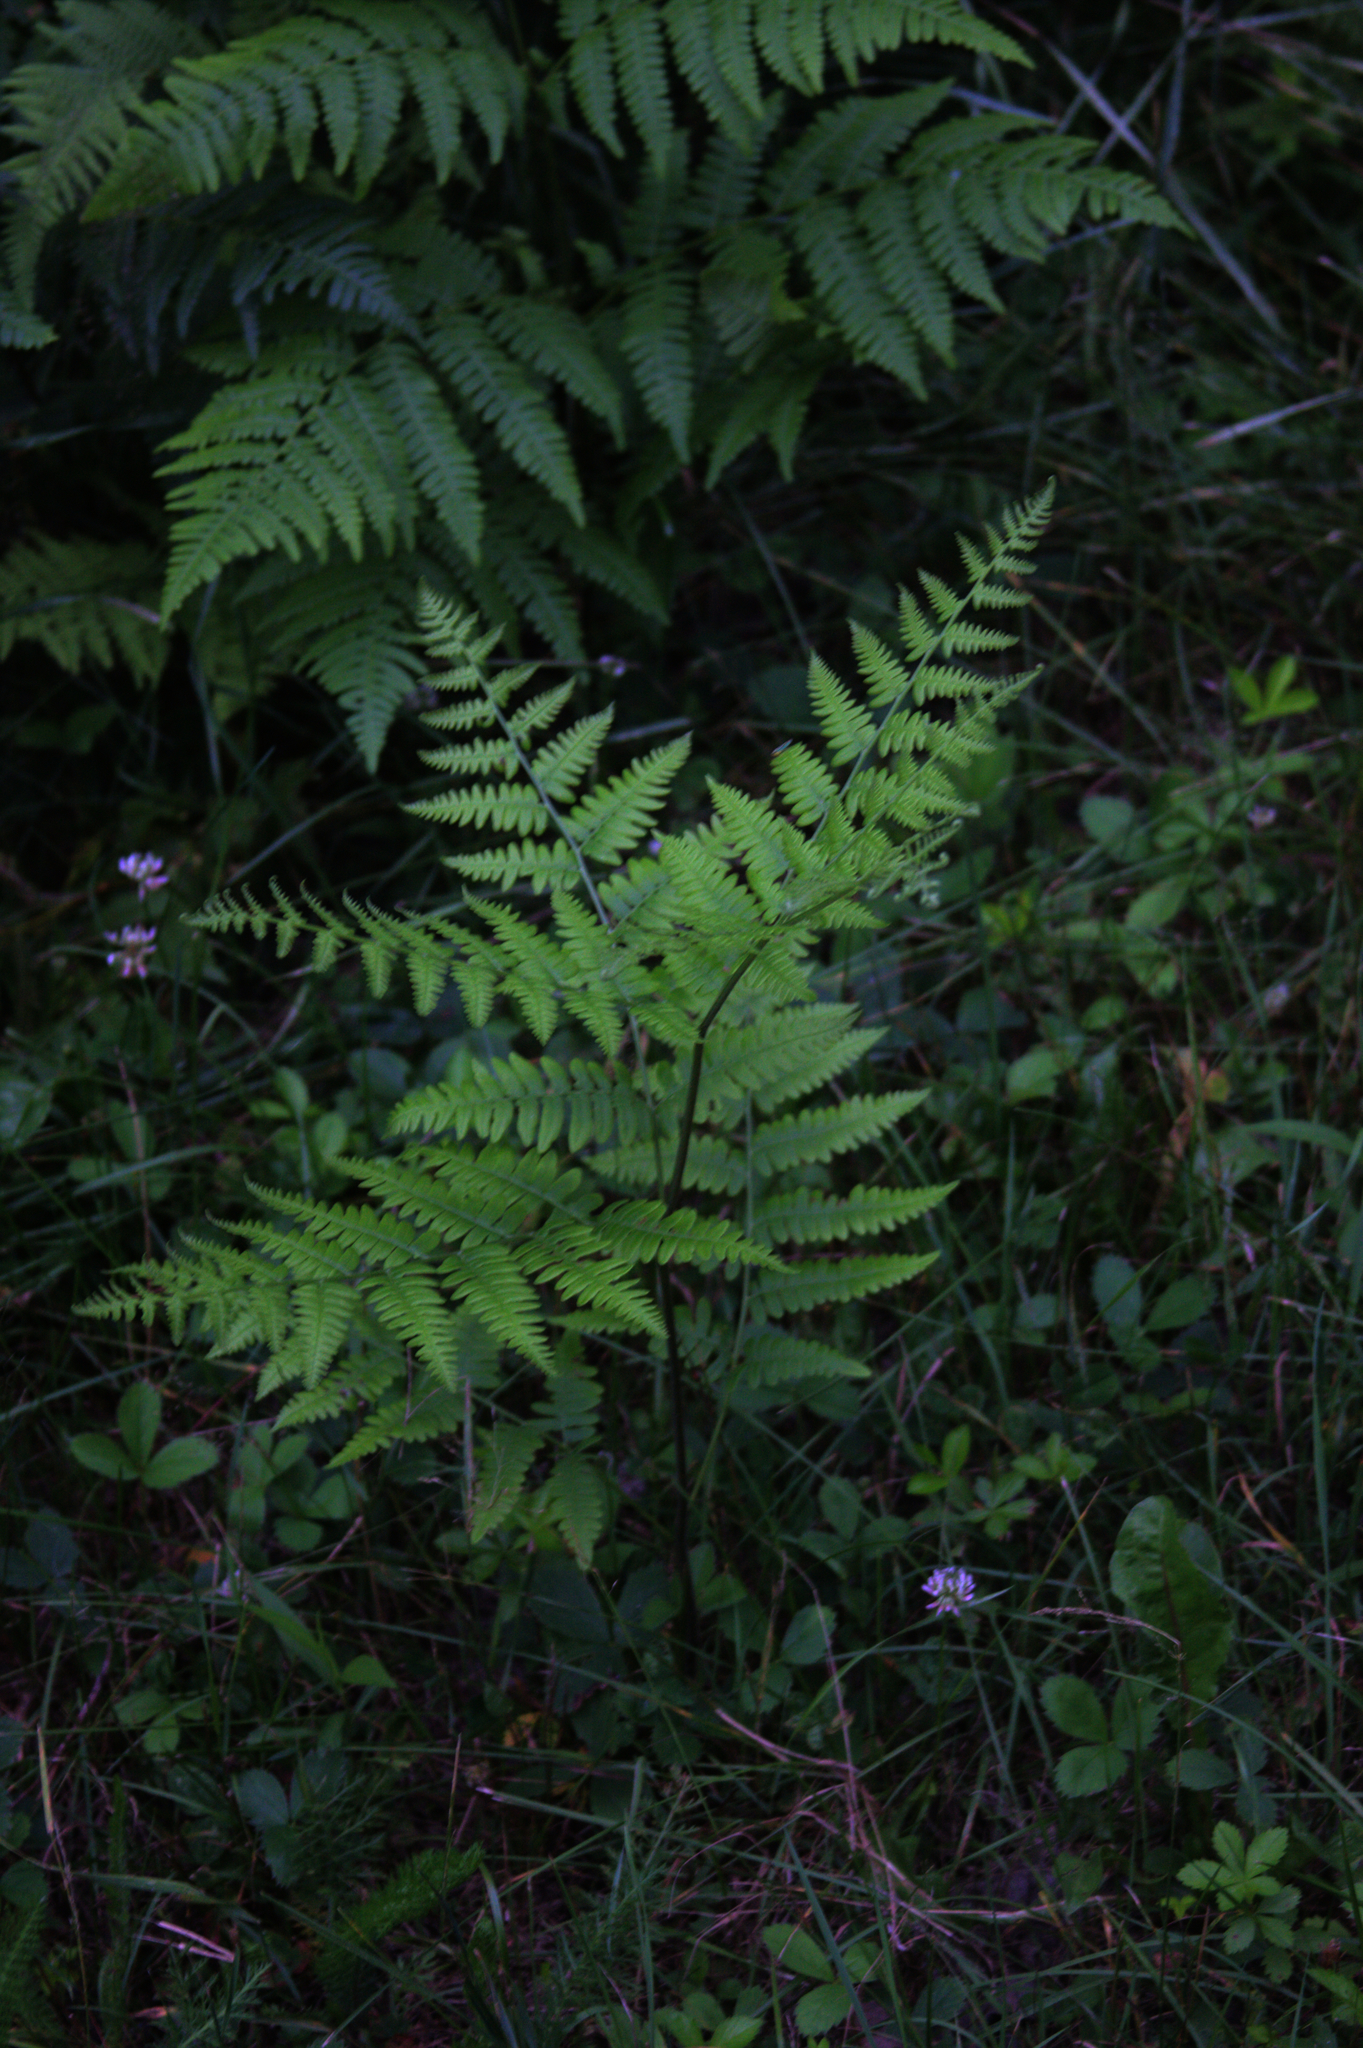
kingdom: Plantae
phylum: Tracheophyta
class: Polypodiopsida
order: Polypodiales
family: Dennstaedtiaceae
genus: Pteridium
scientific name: Pteridium aquilinum
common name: Bracken
